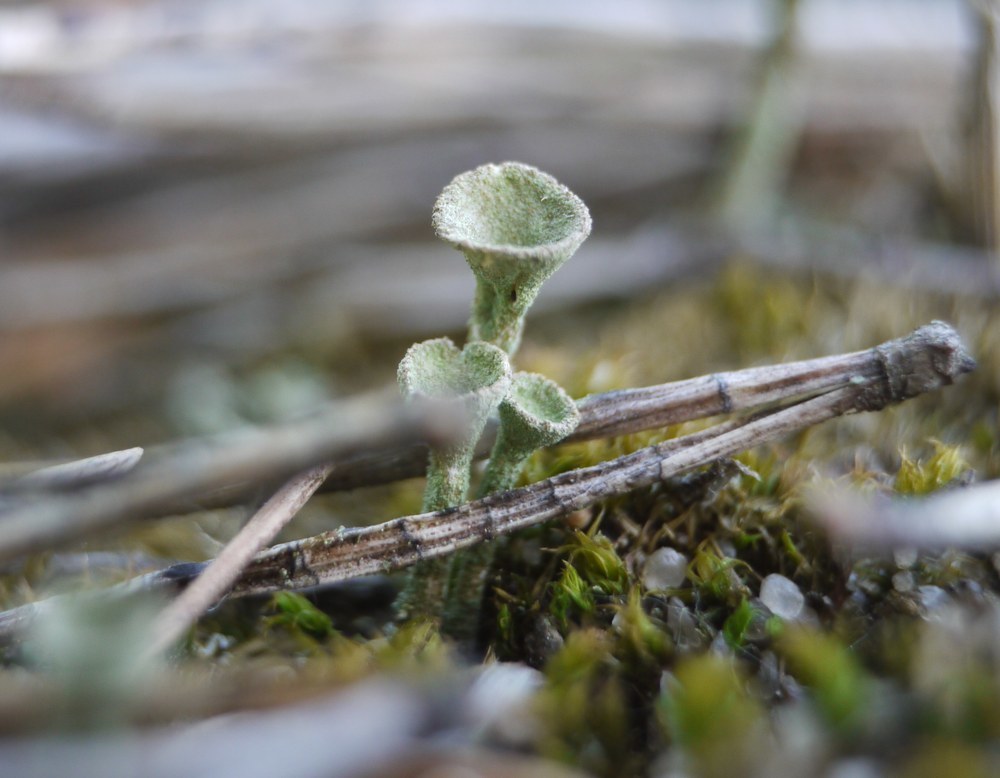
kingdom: Fungi
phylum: Ascomycota
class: Lecanoromycetes
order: Lecanorales
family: Cladoniaceae
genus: Cladonia
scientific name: Cladonia fimbriata
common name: Powdered trumpet lichen
